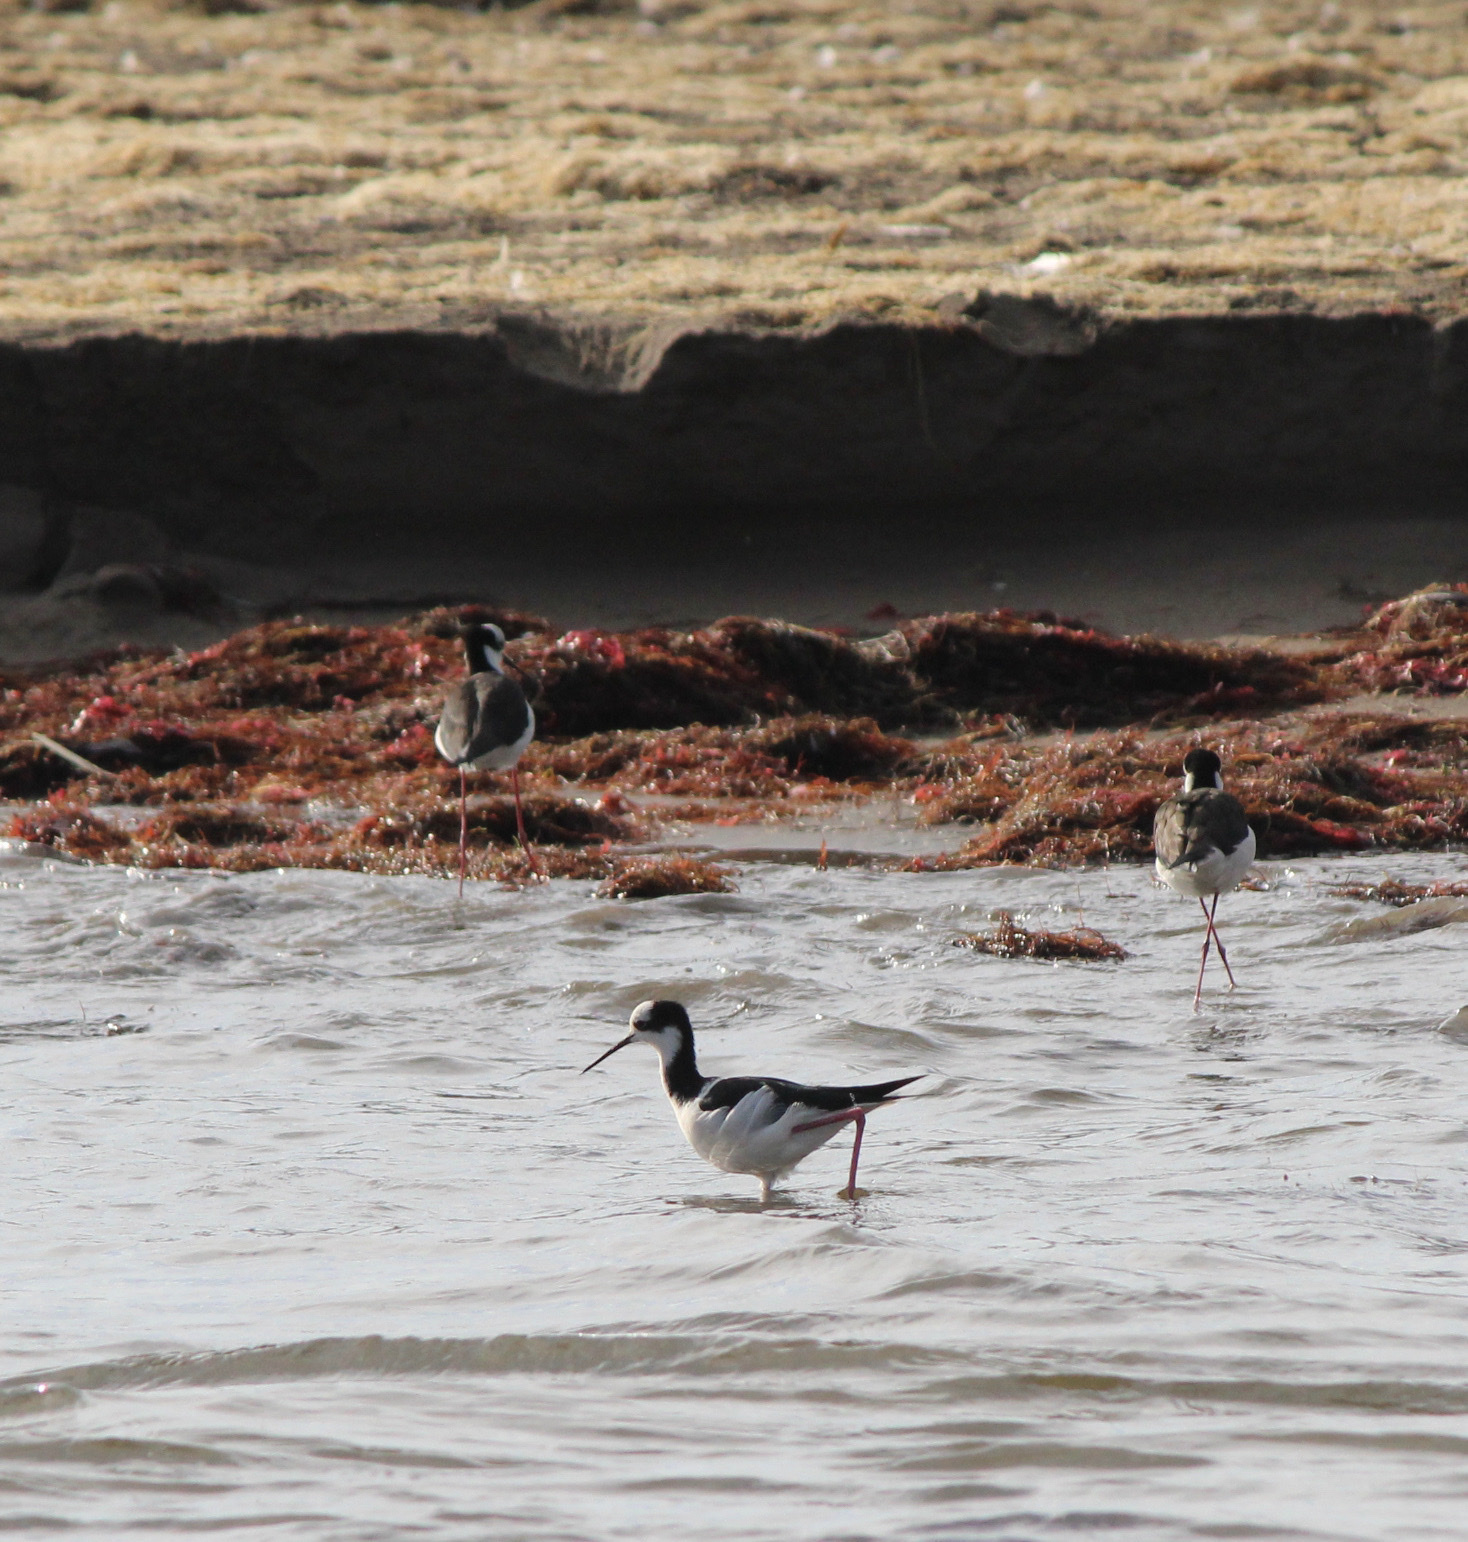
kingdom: Animalia
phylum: Chordata
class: Aves
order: Charadriiformes
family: Recurvirostridae
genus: Himantopus
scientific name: Himantopus mexicanus
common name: Black-necked stilt
